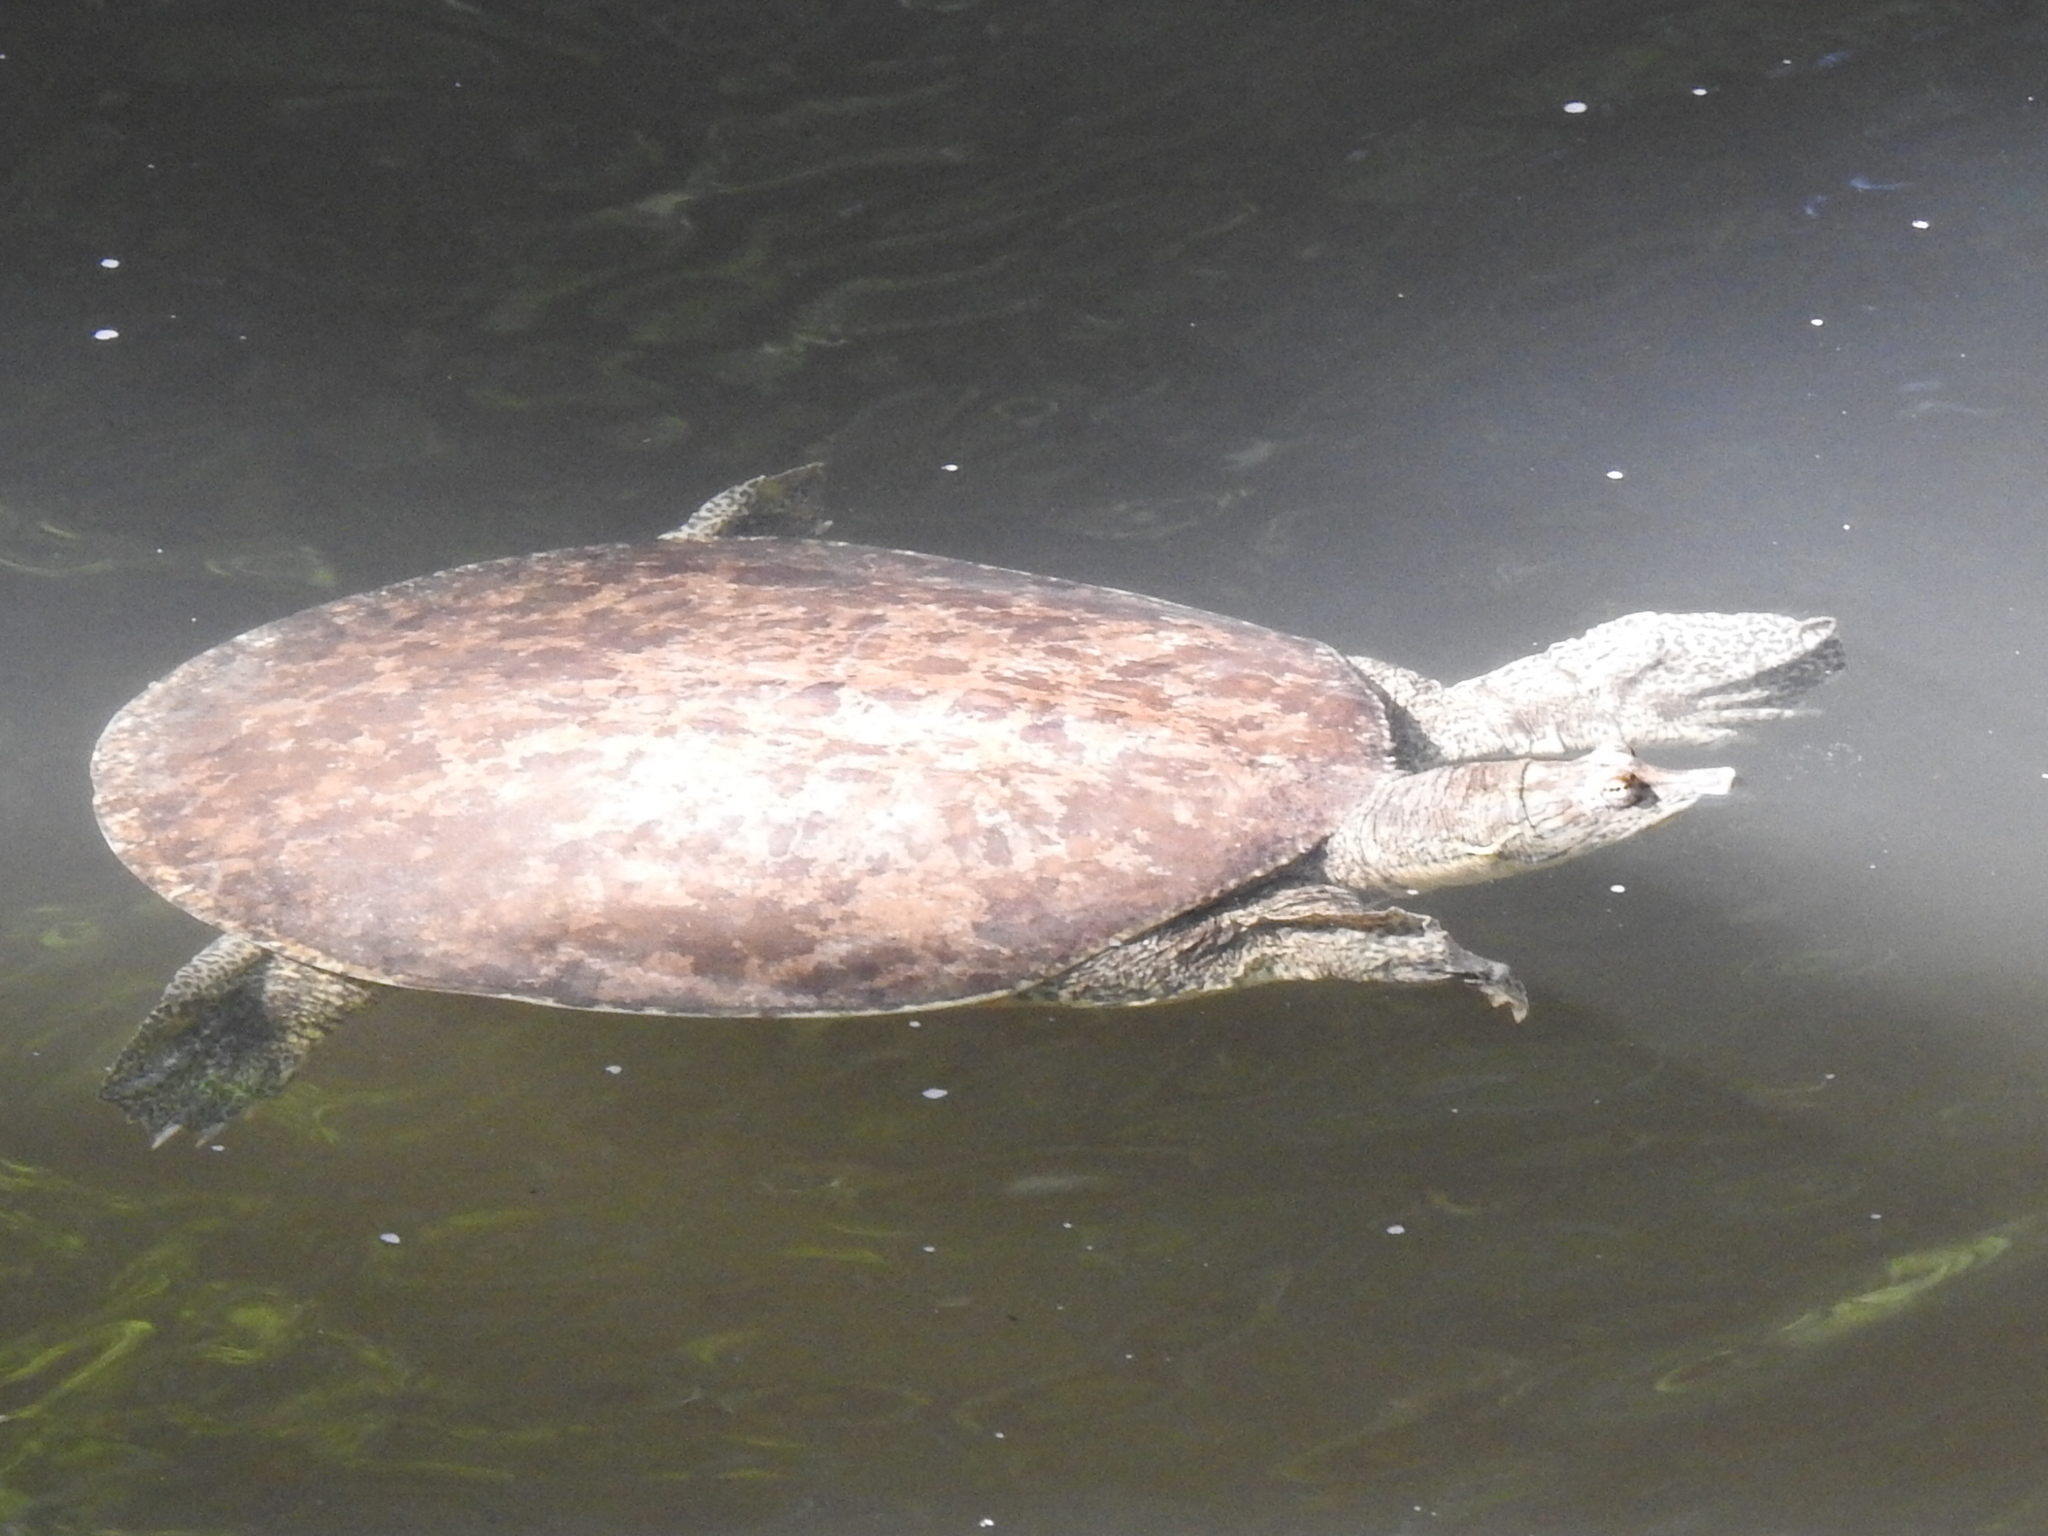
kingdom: Animalia
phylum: Chordata
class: Testudines
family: Trionychidae
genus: Apalone
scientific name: Apalone spinifera
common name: Spiny softshell turtle
